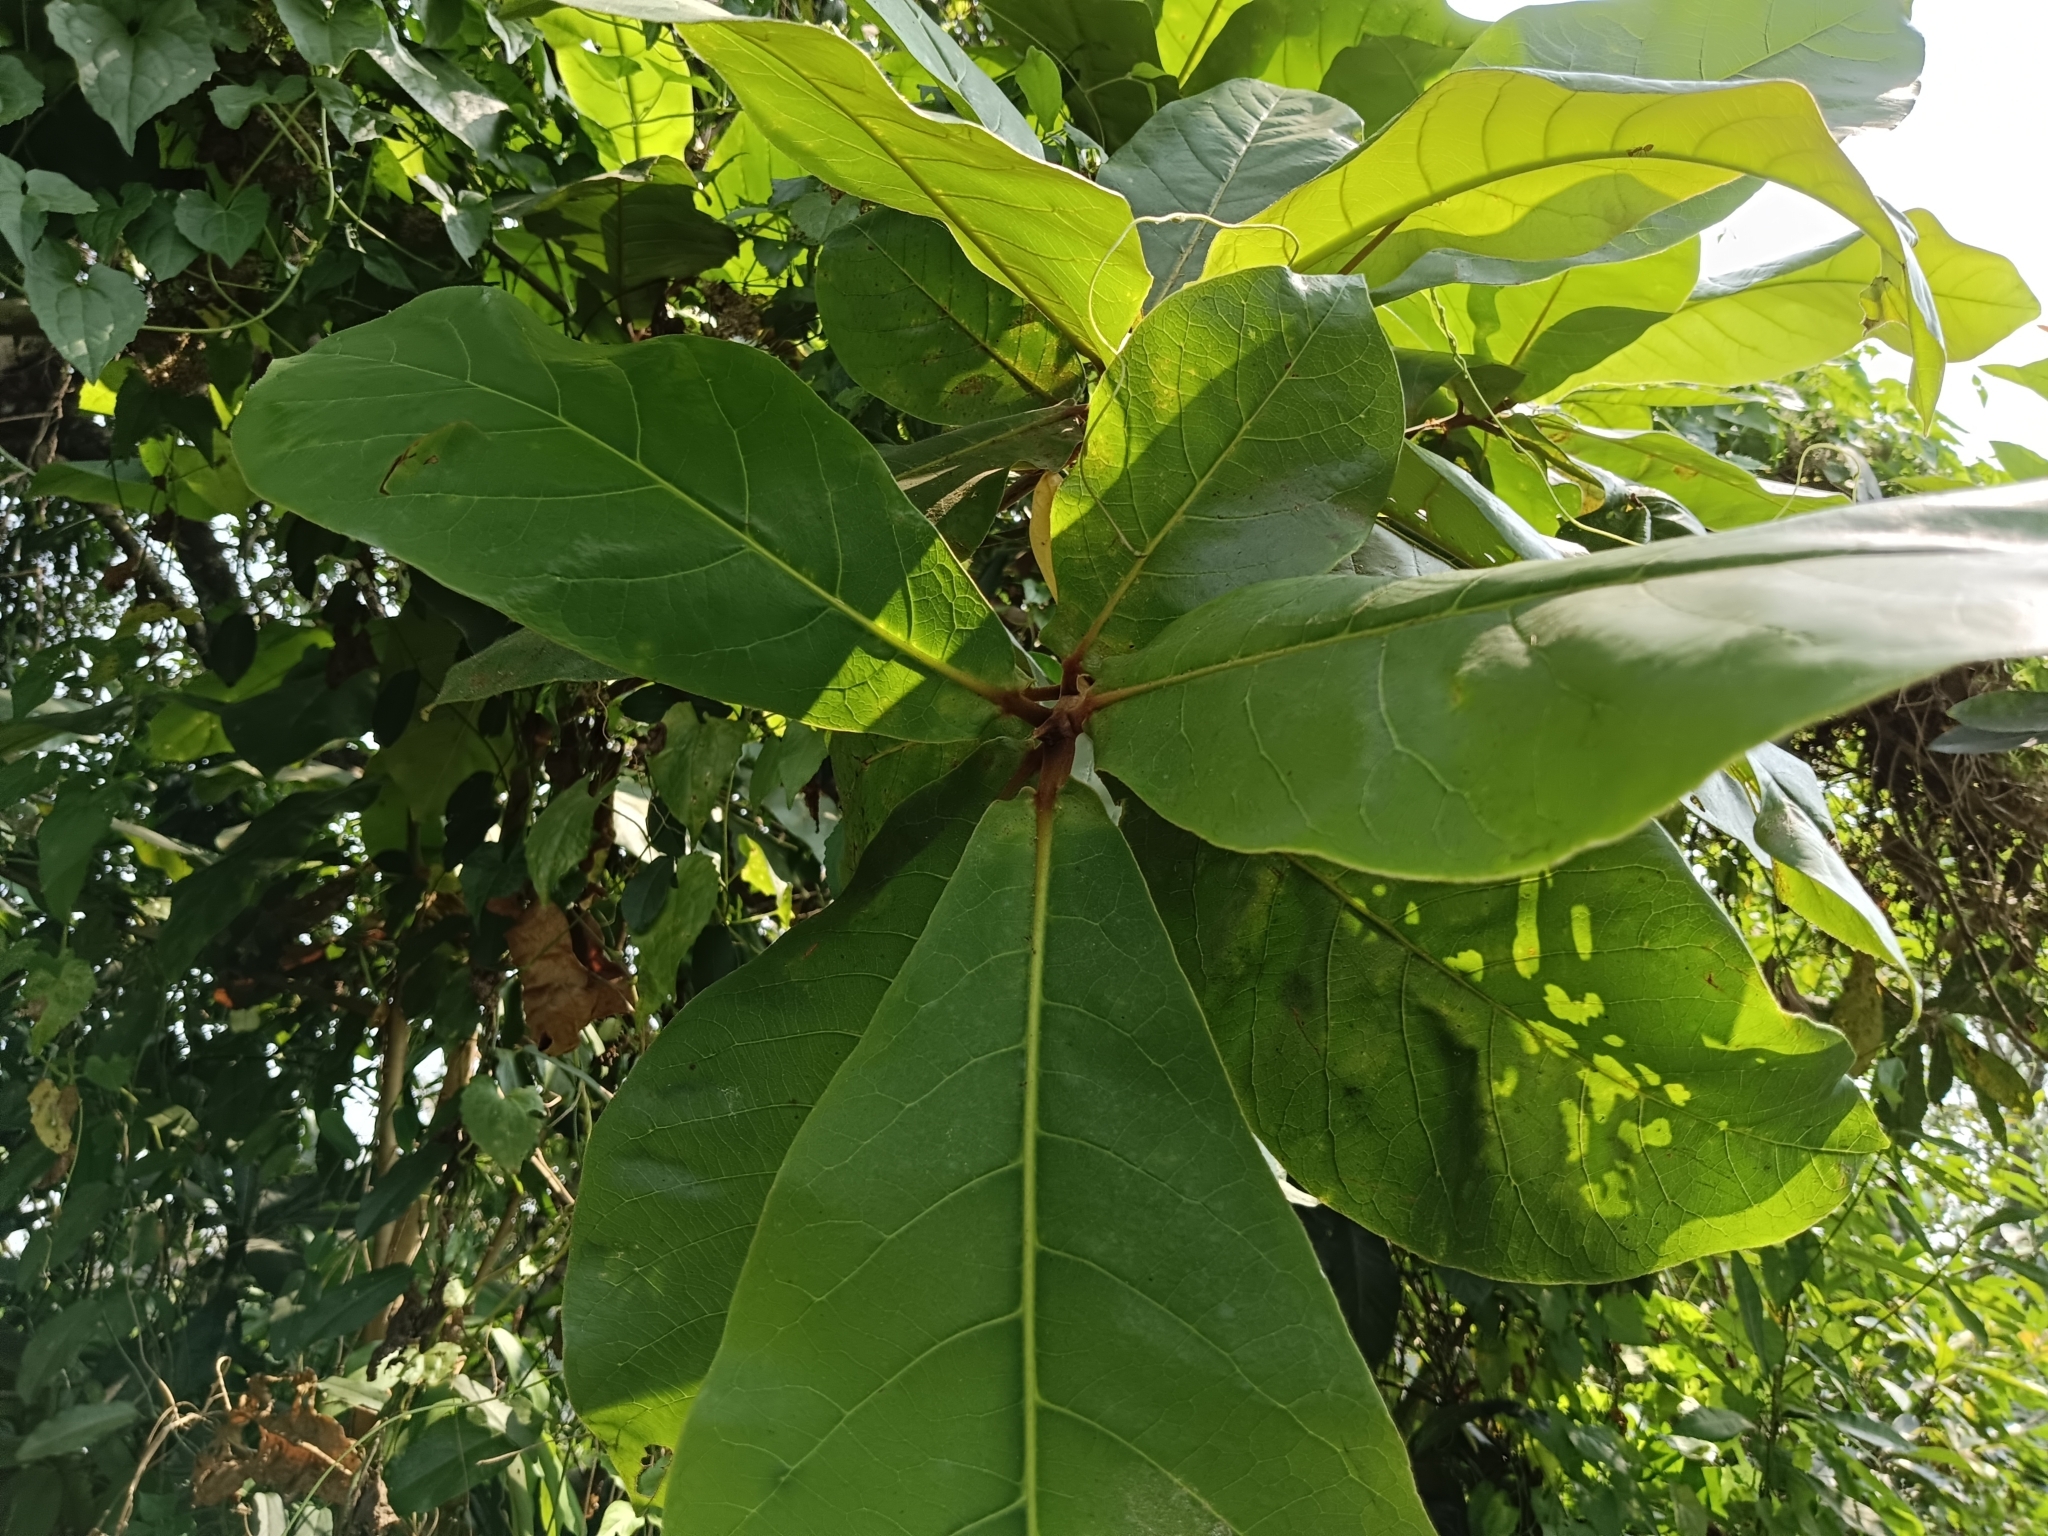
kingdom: Plantae
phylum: Tracheophyta
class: Magnoliopsida
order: Myrtales
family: Combretaceae
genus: Terminalia
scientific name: Terminalia catappa
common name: Tropical almond
